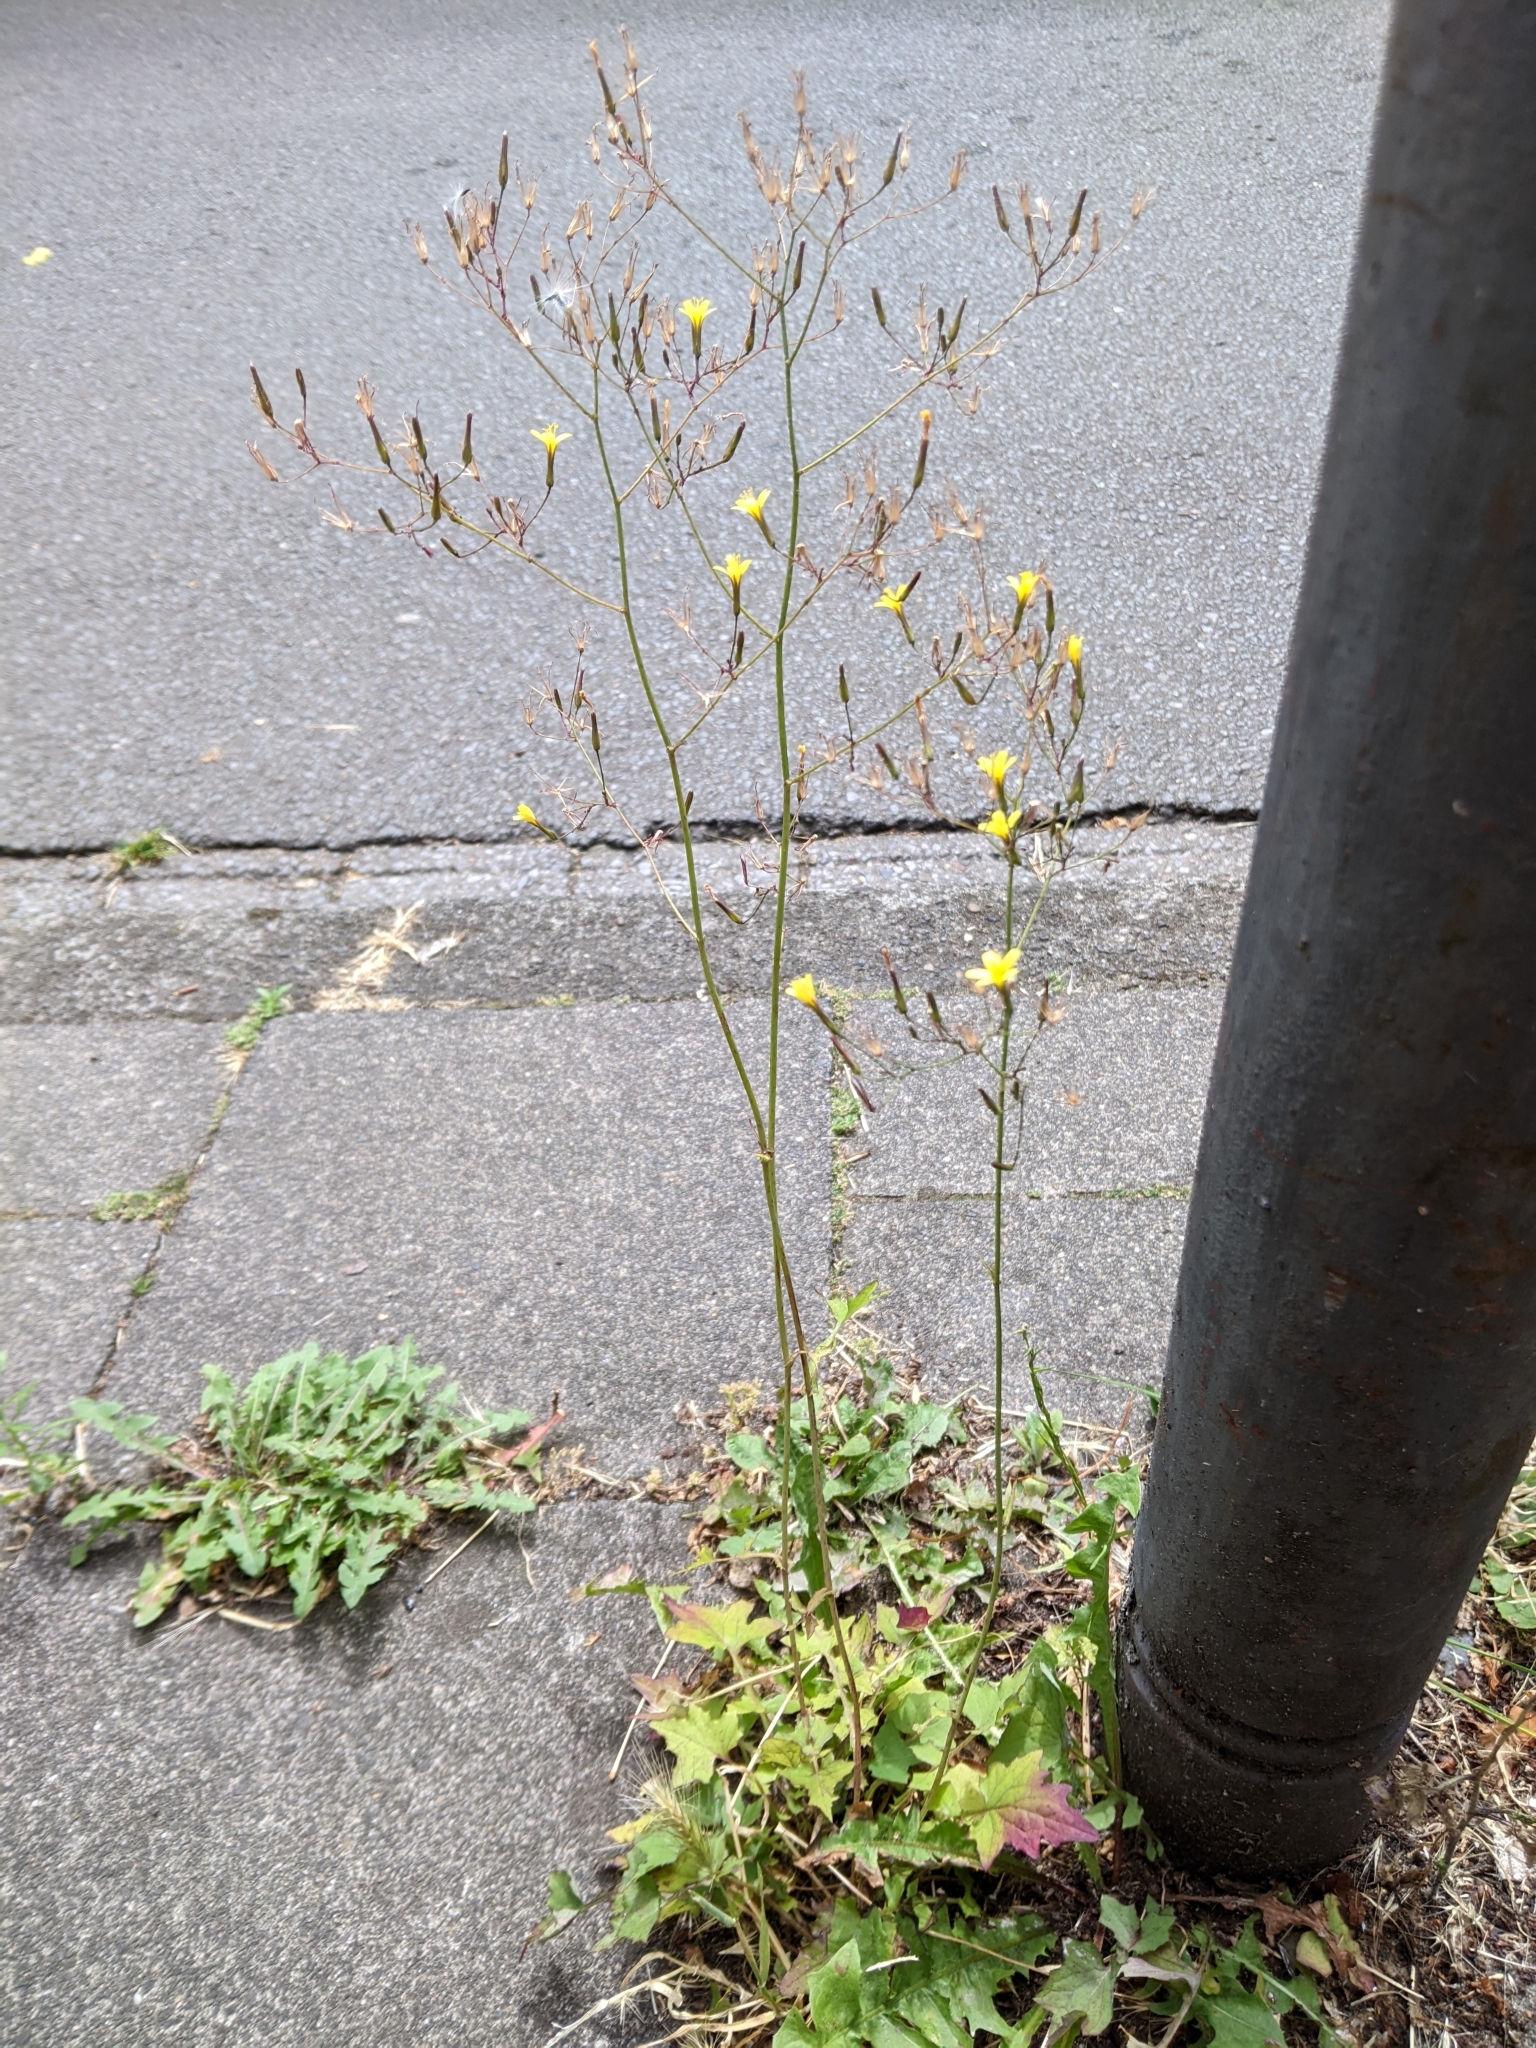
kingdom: Plantae
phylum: Tracheophyta
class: Magnoliopsida
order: Asterales
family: Asteraceae
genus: Mycelis
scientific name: Mycelis muralis
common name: Wall lettuce
